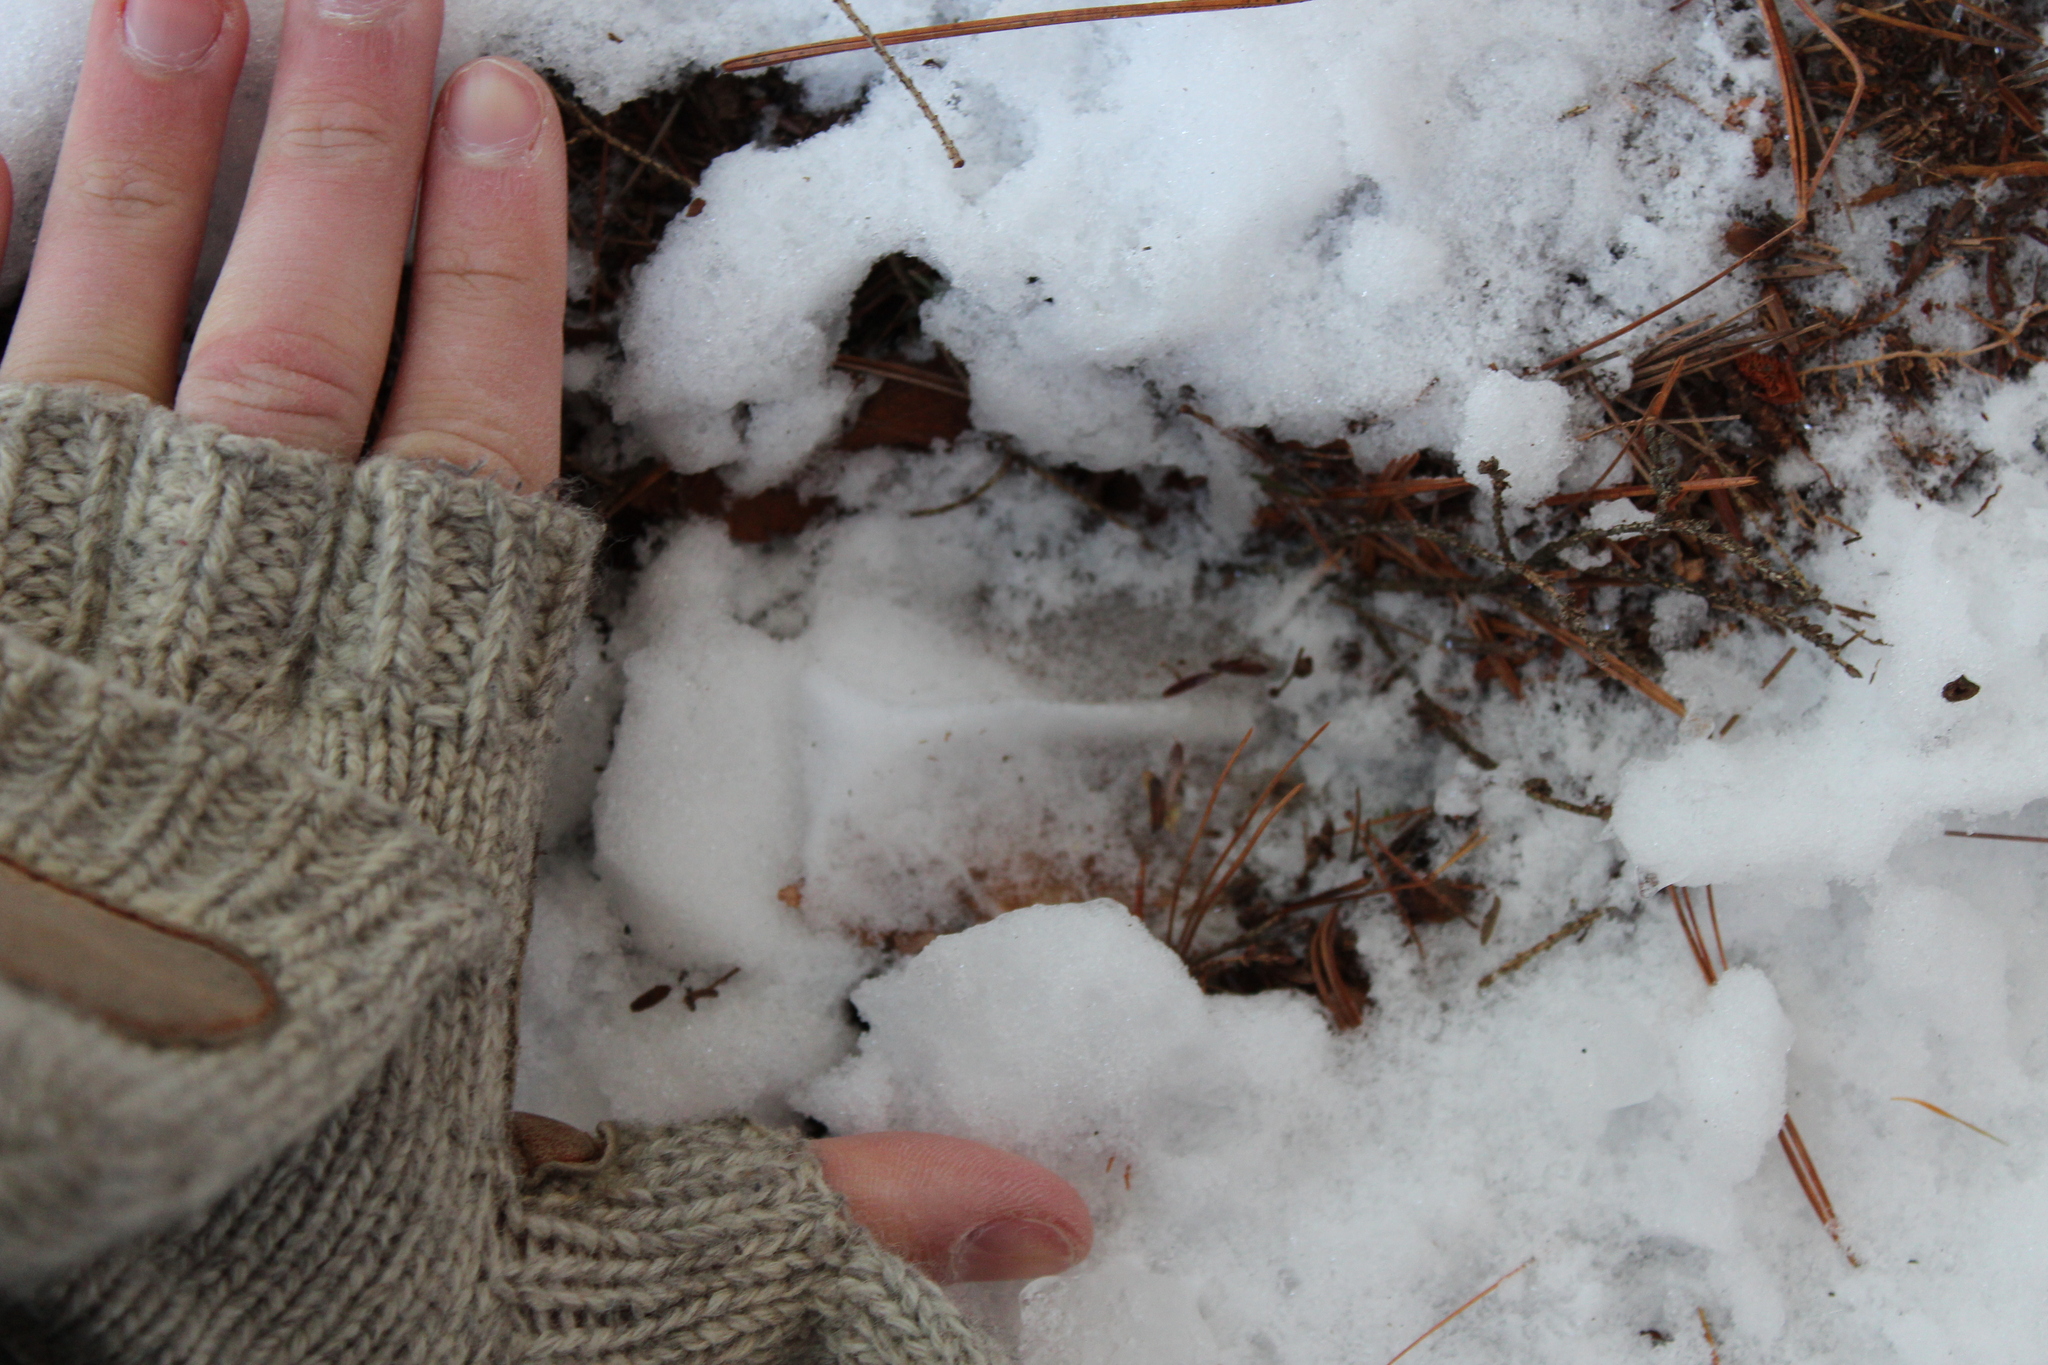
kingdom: Animalia
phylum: Chordata
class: Mammalia
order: Artiodactyla
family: Cervidae
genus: Odocoileus
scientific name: Odocoileus virginianus
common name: White-tailed deer
